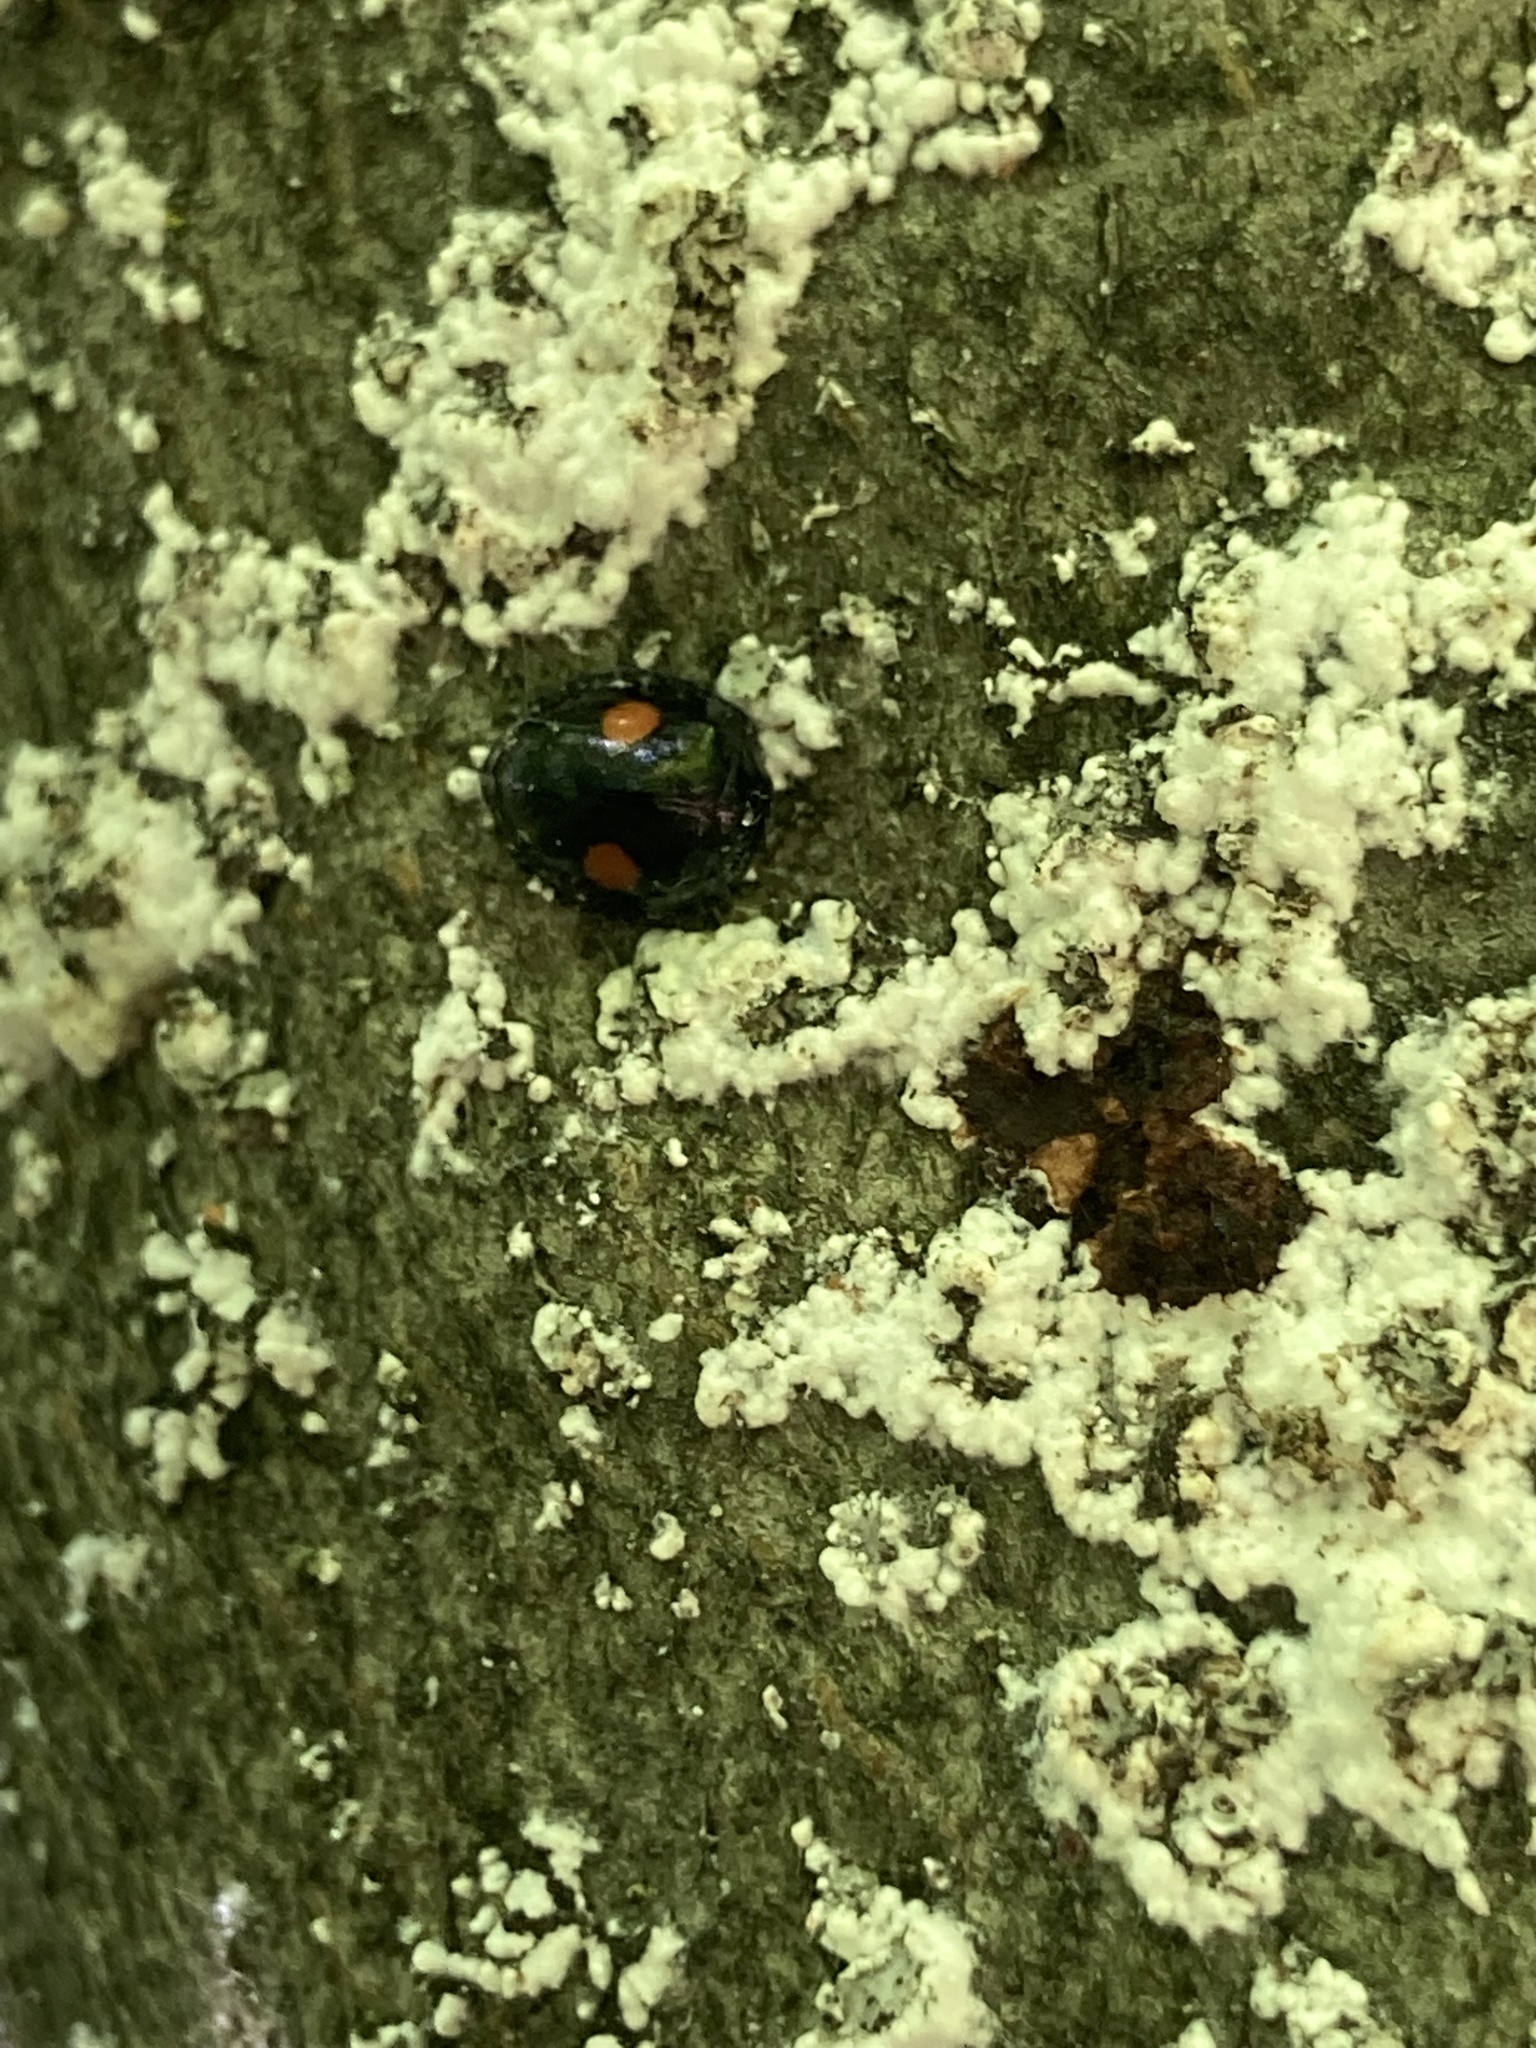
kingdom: Animalia
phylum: Arthropoda
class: Insecta
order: Coleoptera
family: Coccinellidae
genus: Chilocorus
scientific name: Chilocorus stigma
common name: Twicestabbed lady beetle
